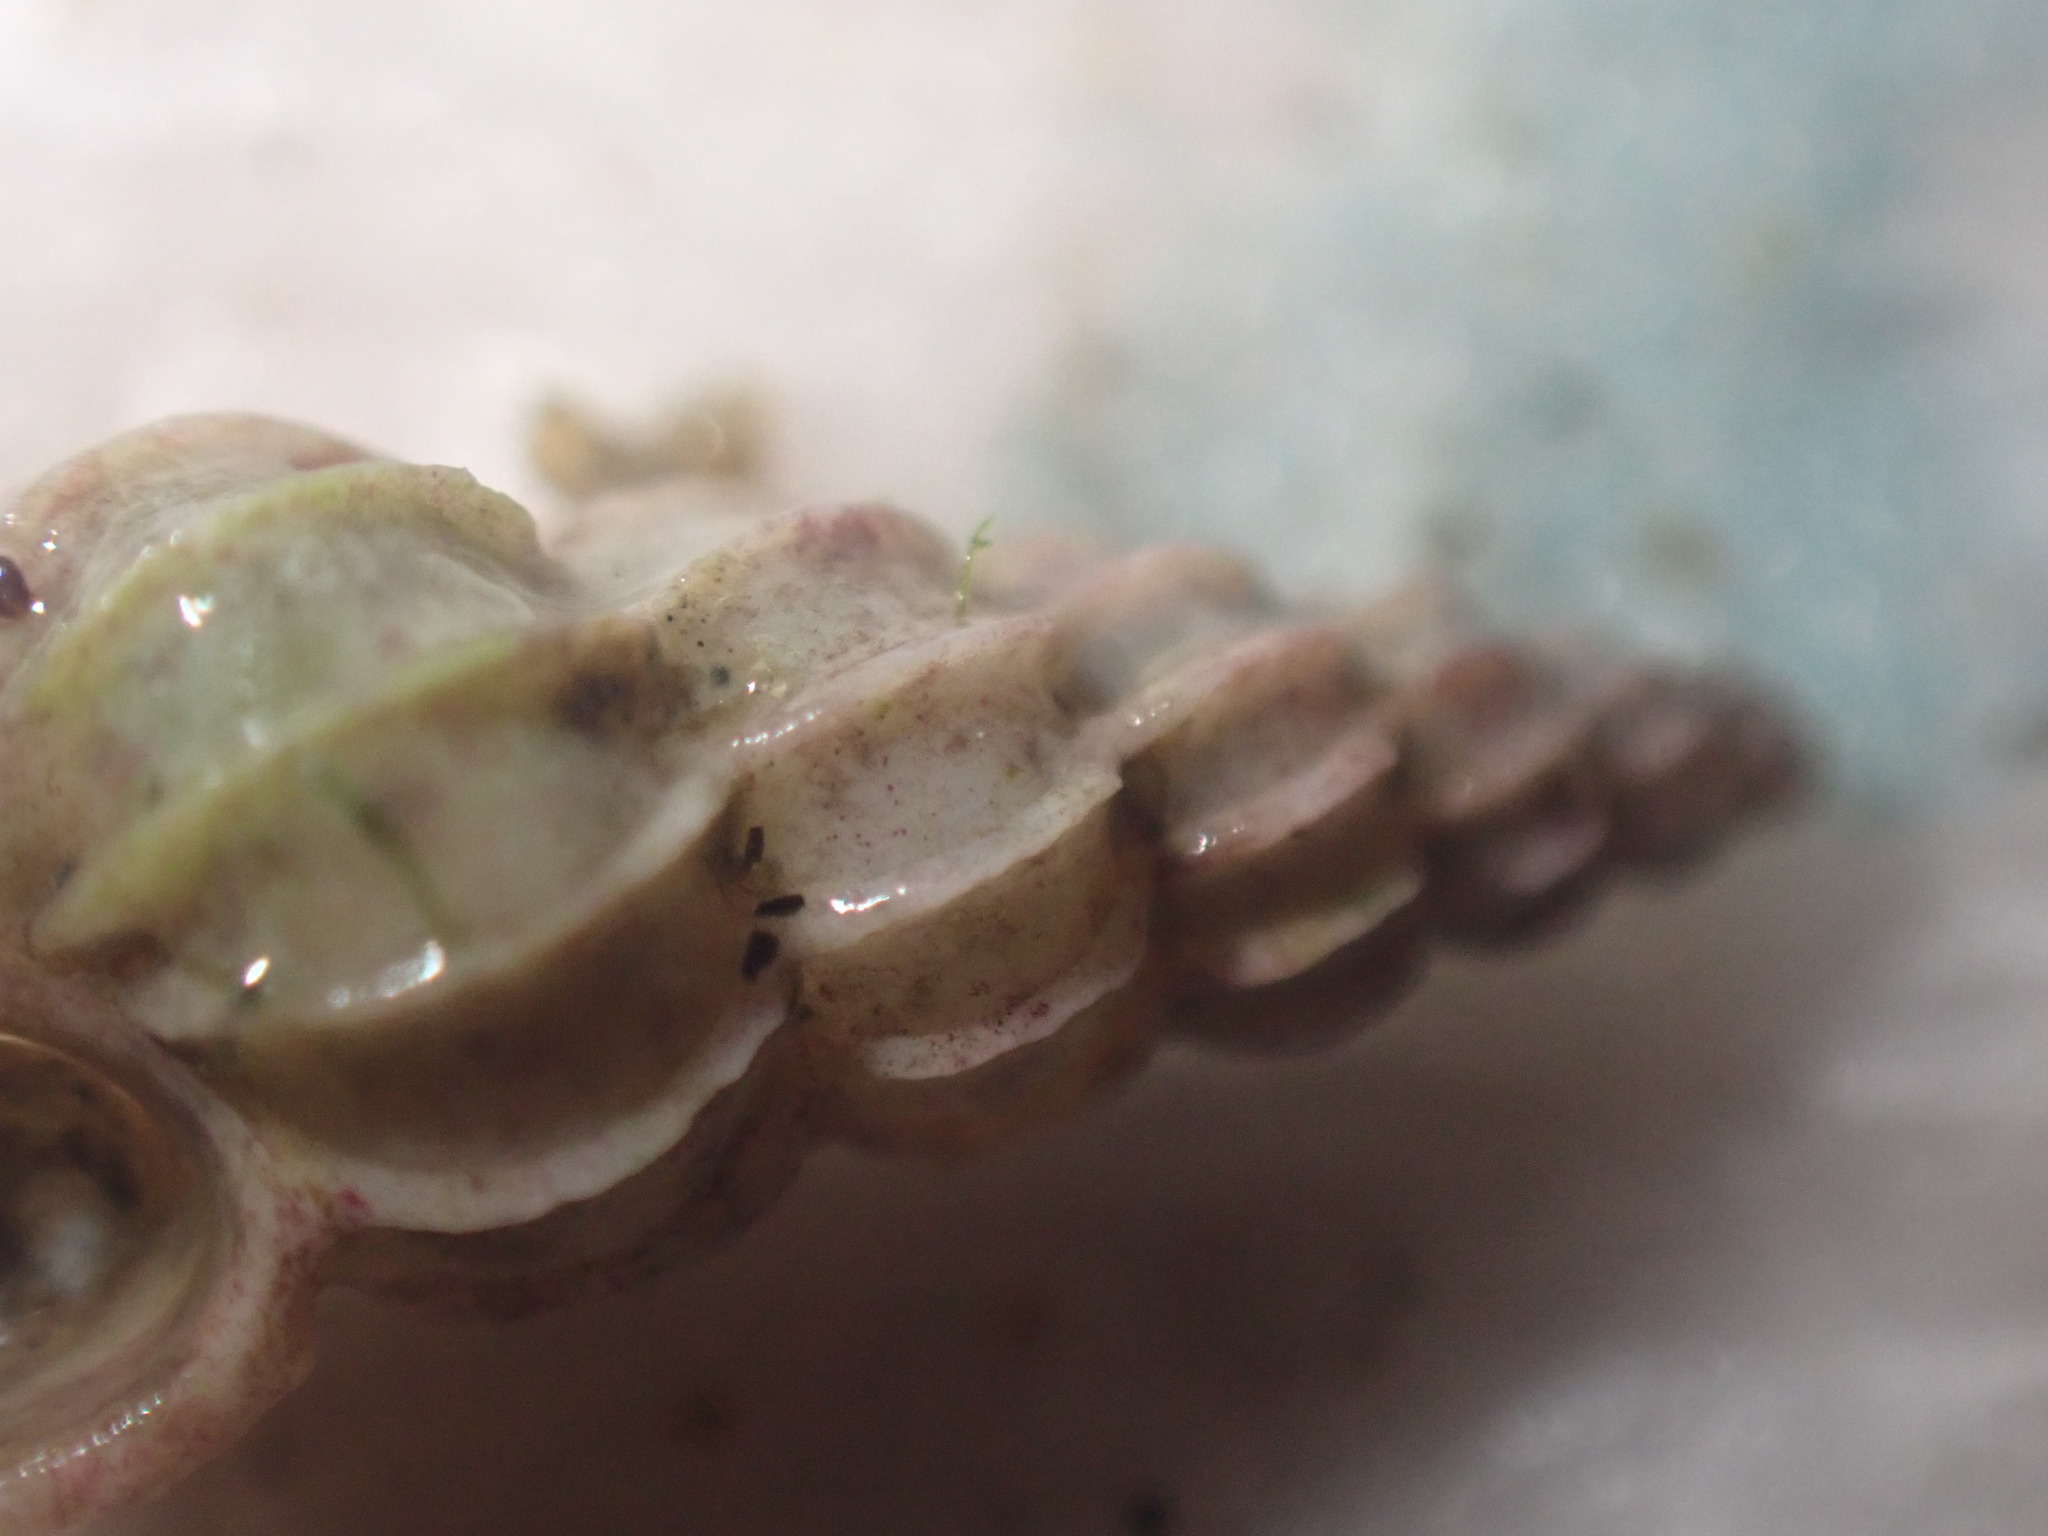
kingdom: Animalia
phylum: Mollusca
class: Gastropoda
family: Epitoniidae
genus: Epitonium
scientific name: Epitonium minorum
